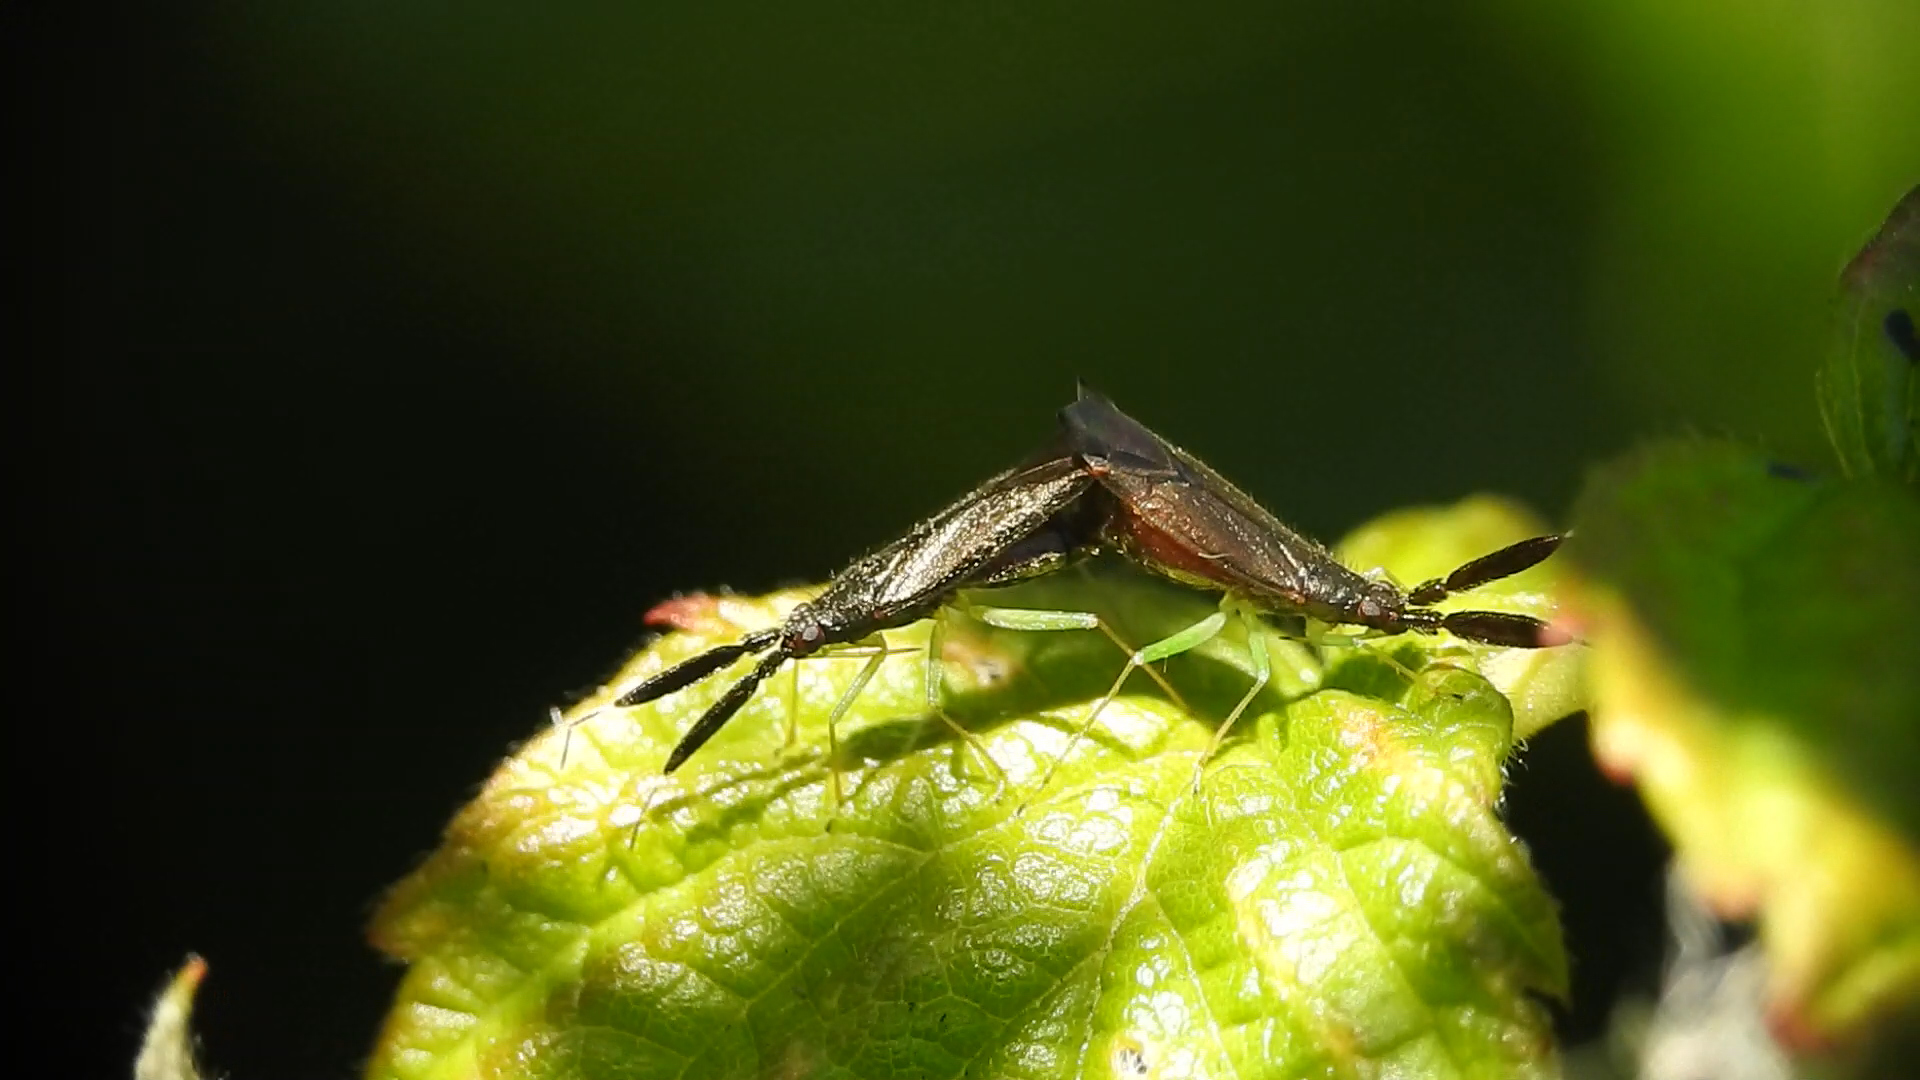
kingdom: Animalia
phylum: Arthropoda
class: Insecta
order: Hemiptera
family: Miridae
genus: Heterotoma
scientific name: Heterotoma planicornis
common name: Plant bug
